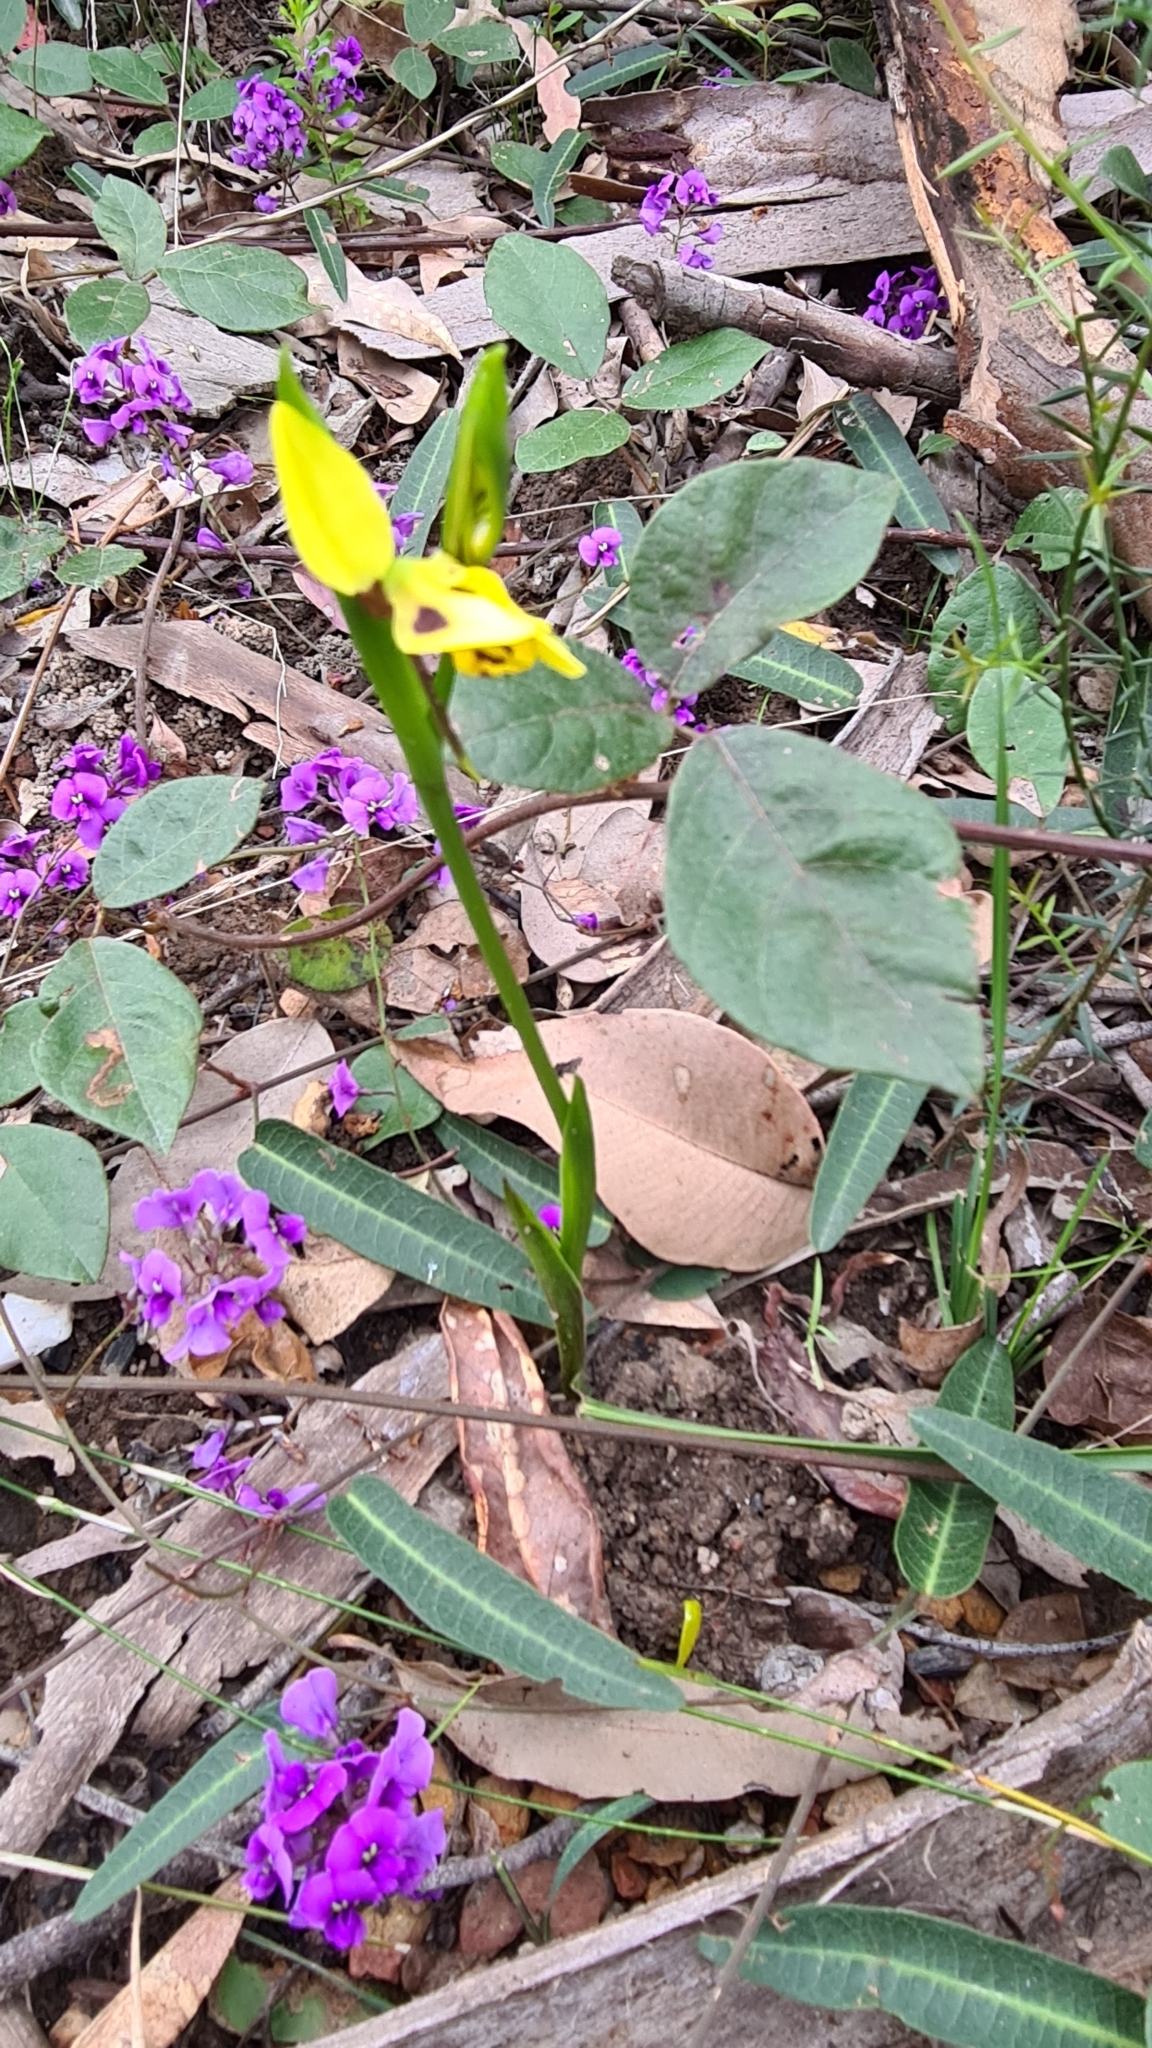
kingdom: Plantae
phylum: Tracheophyta
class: Liliopsida
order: Asparagales
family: Orchidaceae
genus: Diuris
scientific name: Diuris sulphurea
